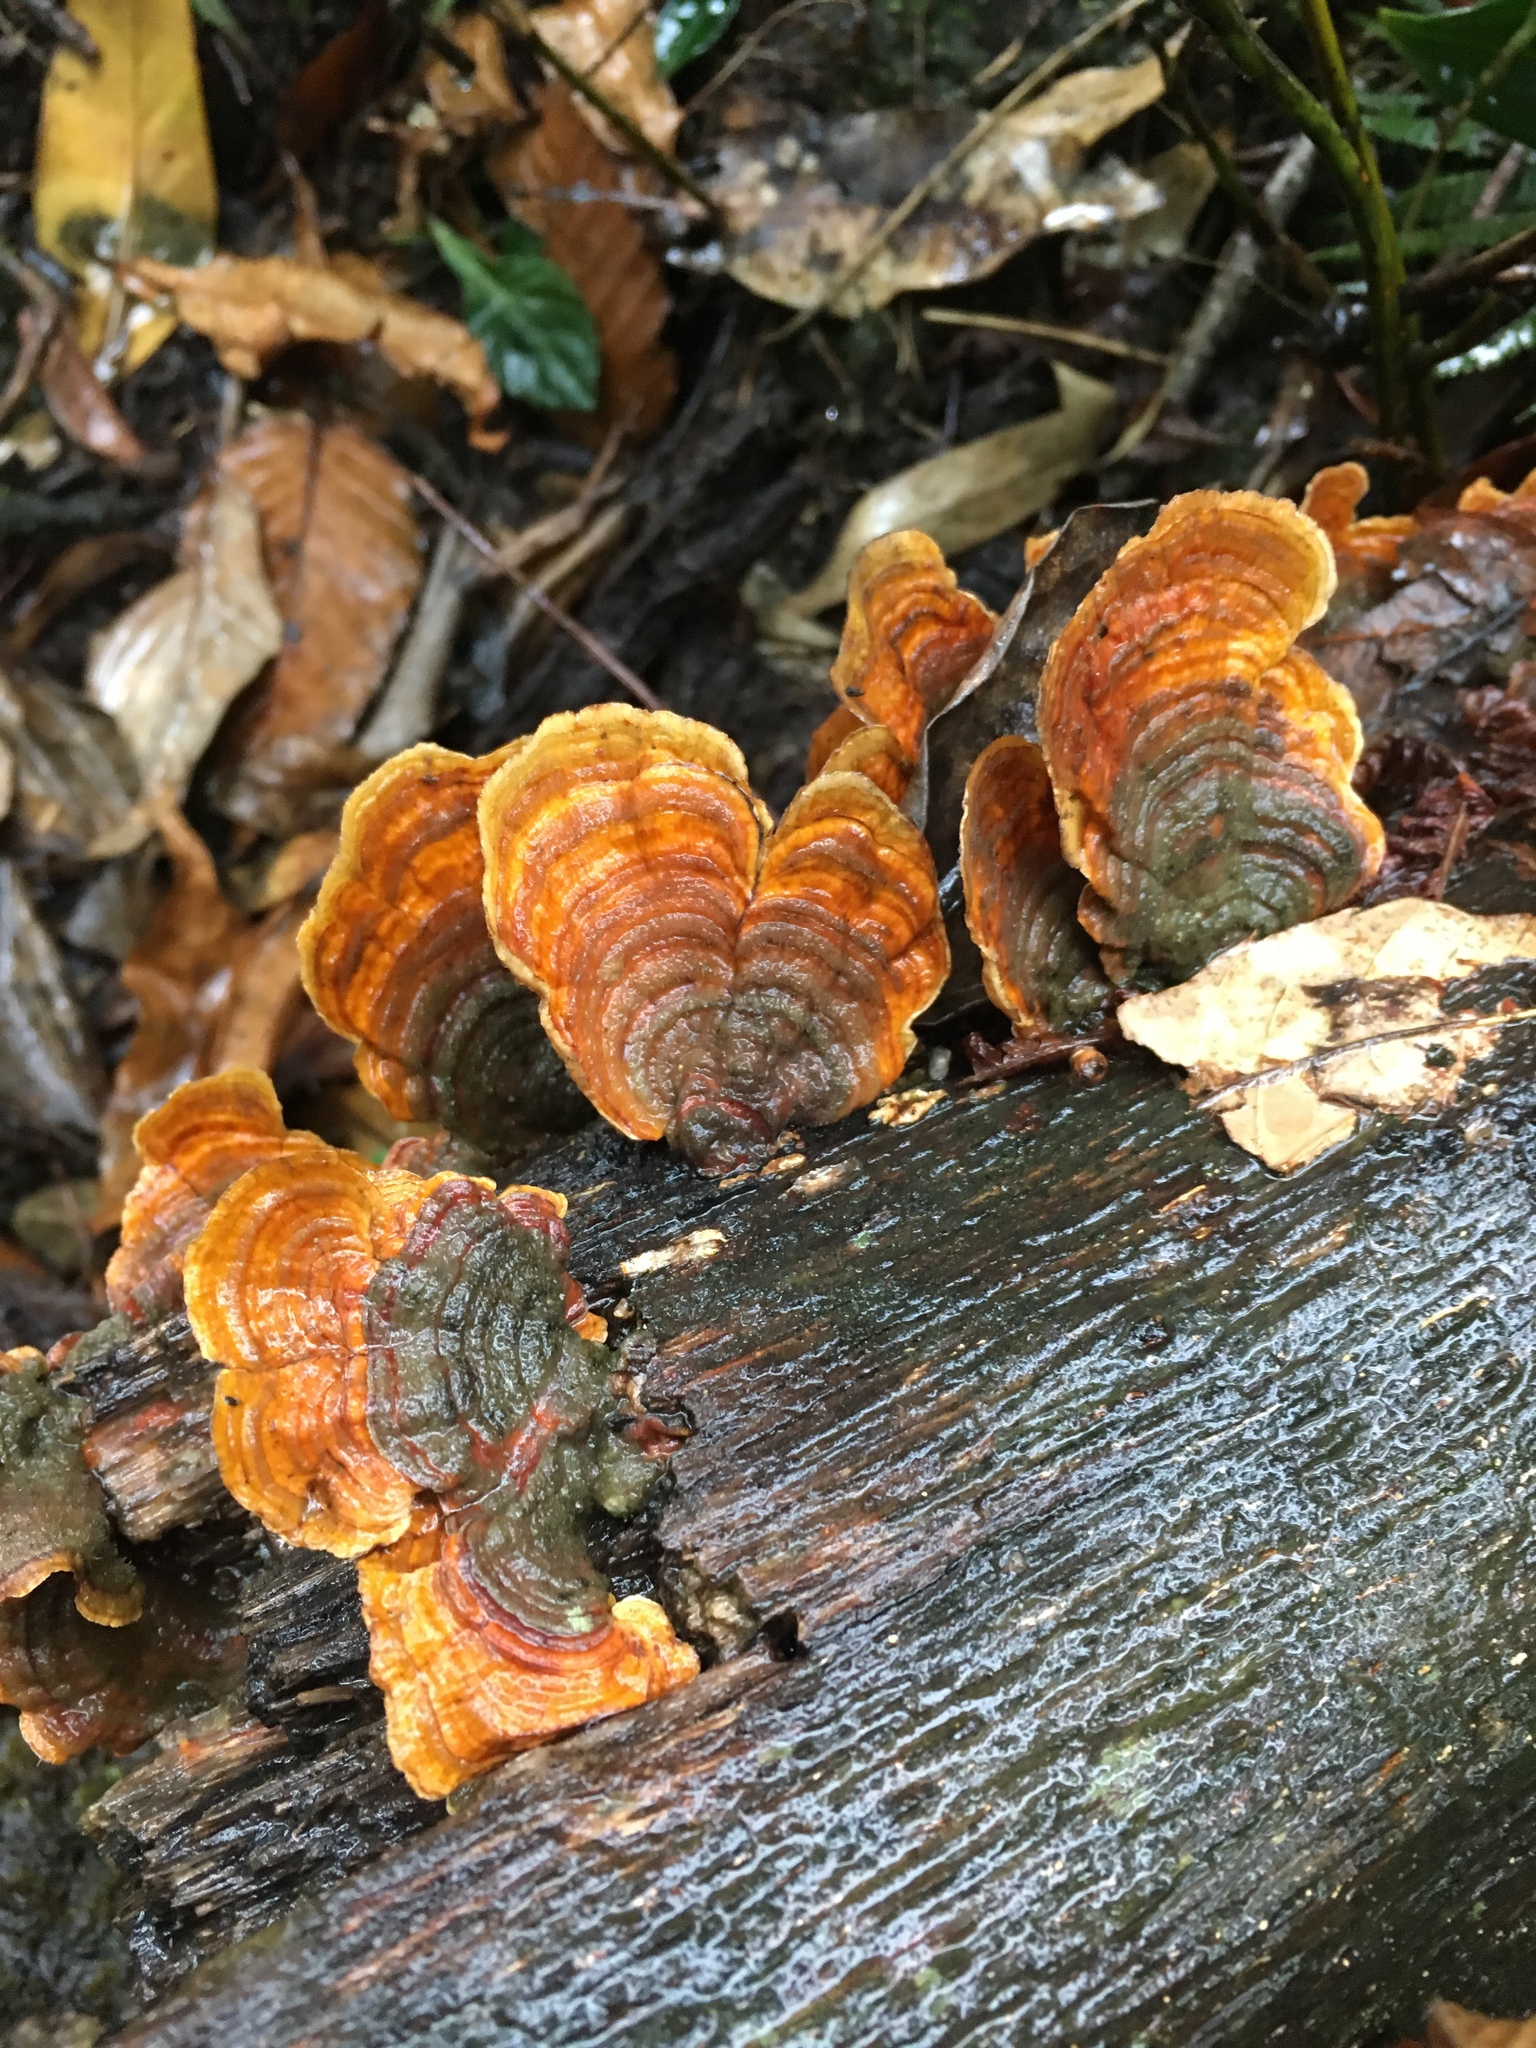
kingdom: Fungi
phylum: Basidiomycota
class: Agaricomycetes
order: Russulales
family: Stereaceae
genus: Stereum
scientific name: Stereum ostrea
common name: False turkeytail
